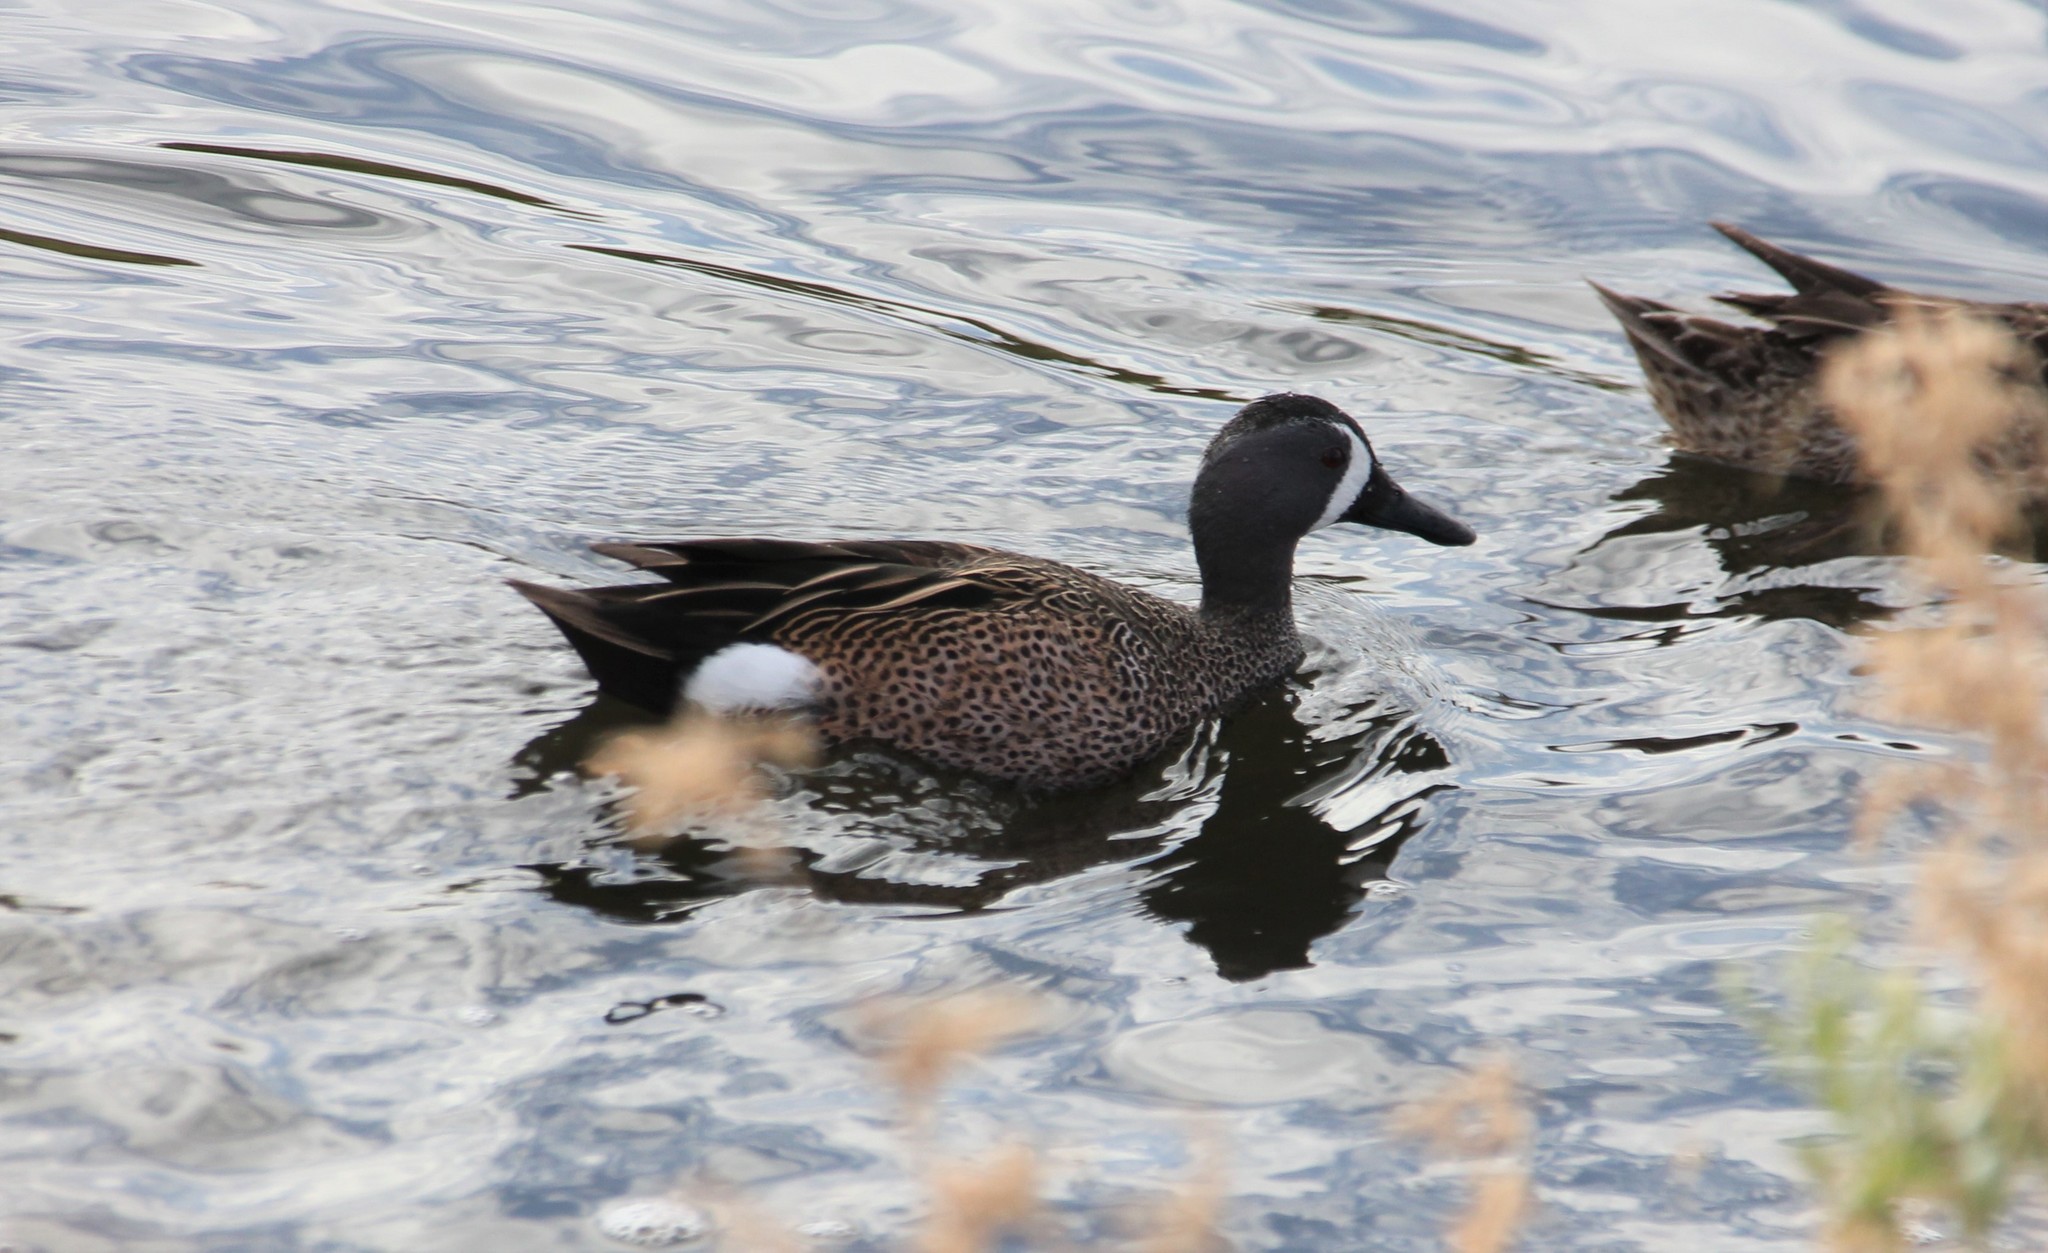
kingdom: Animalia
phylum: Chordata
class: Aves
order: Anseriformes
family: Anatidae
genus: Spatula
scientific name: Spatula discors
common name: Blue-winged teal
